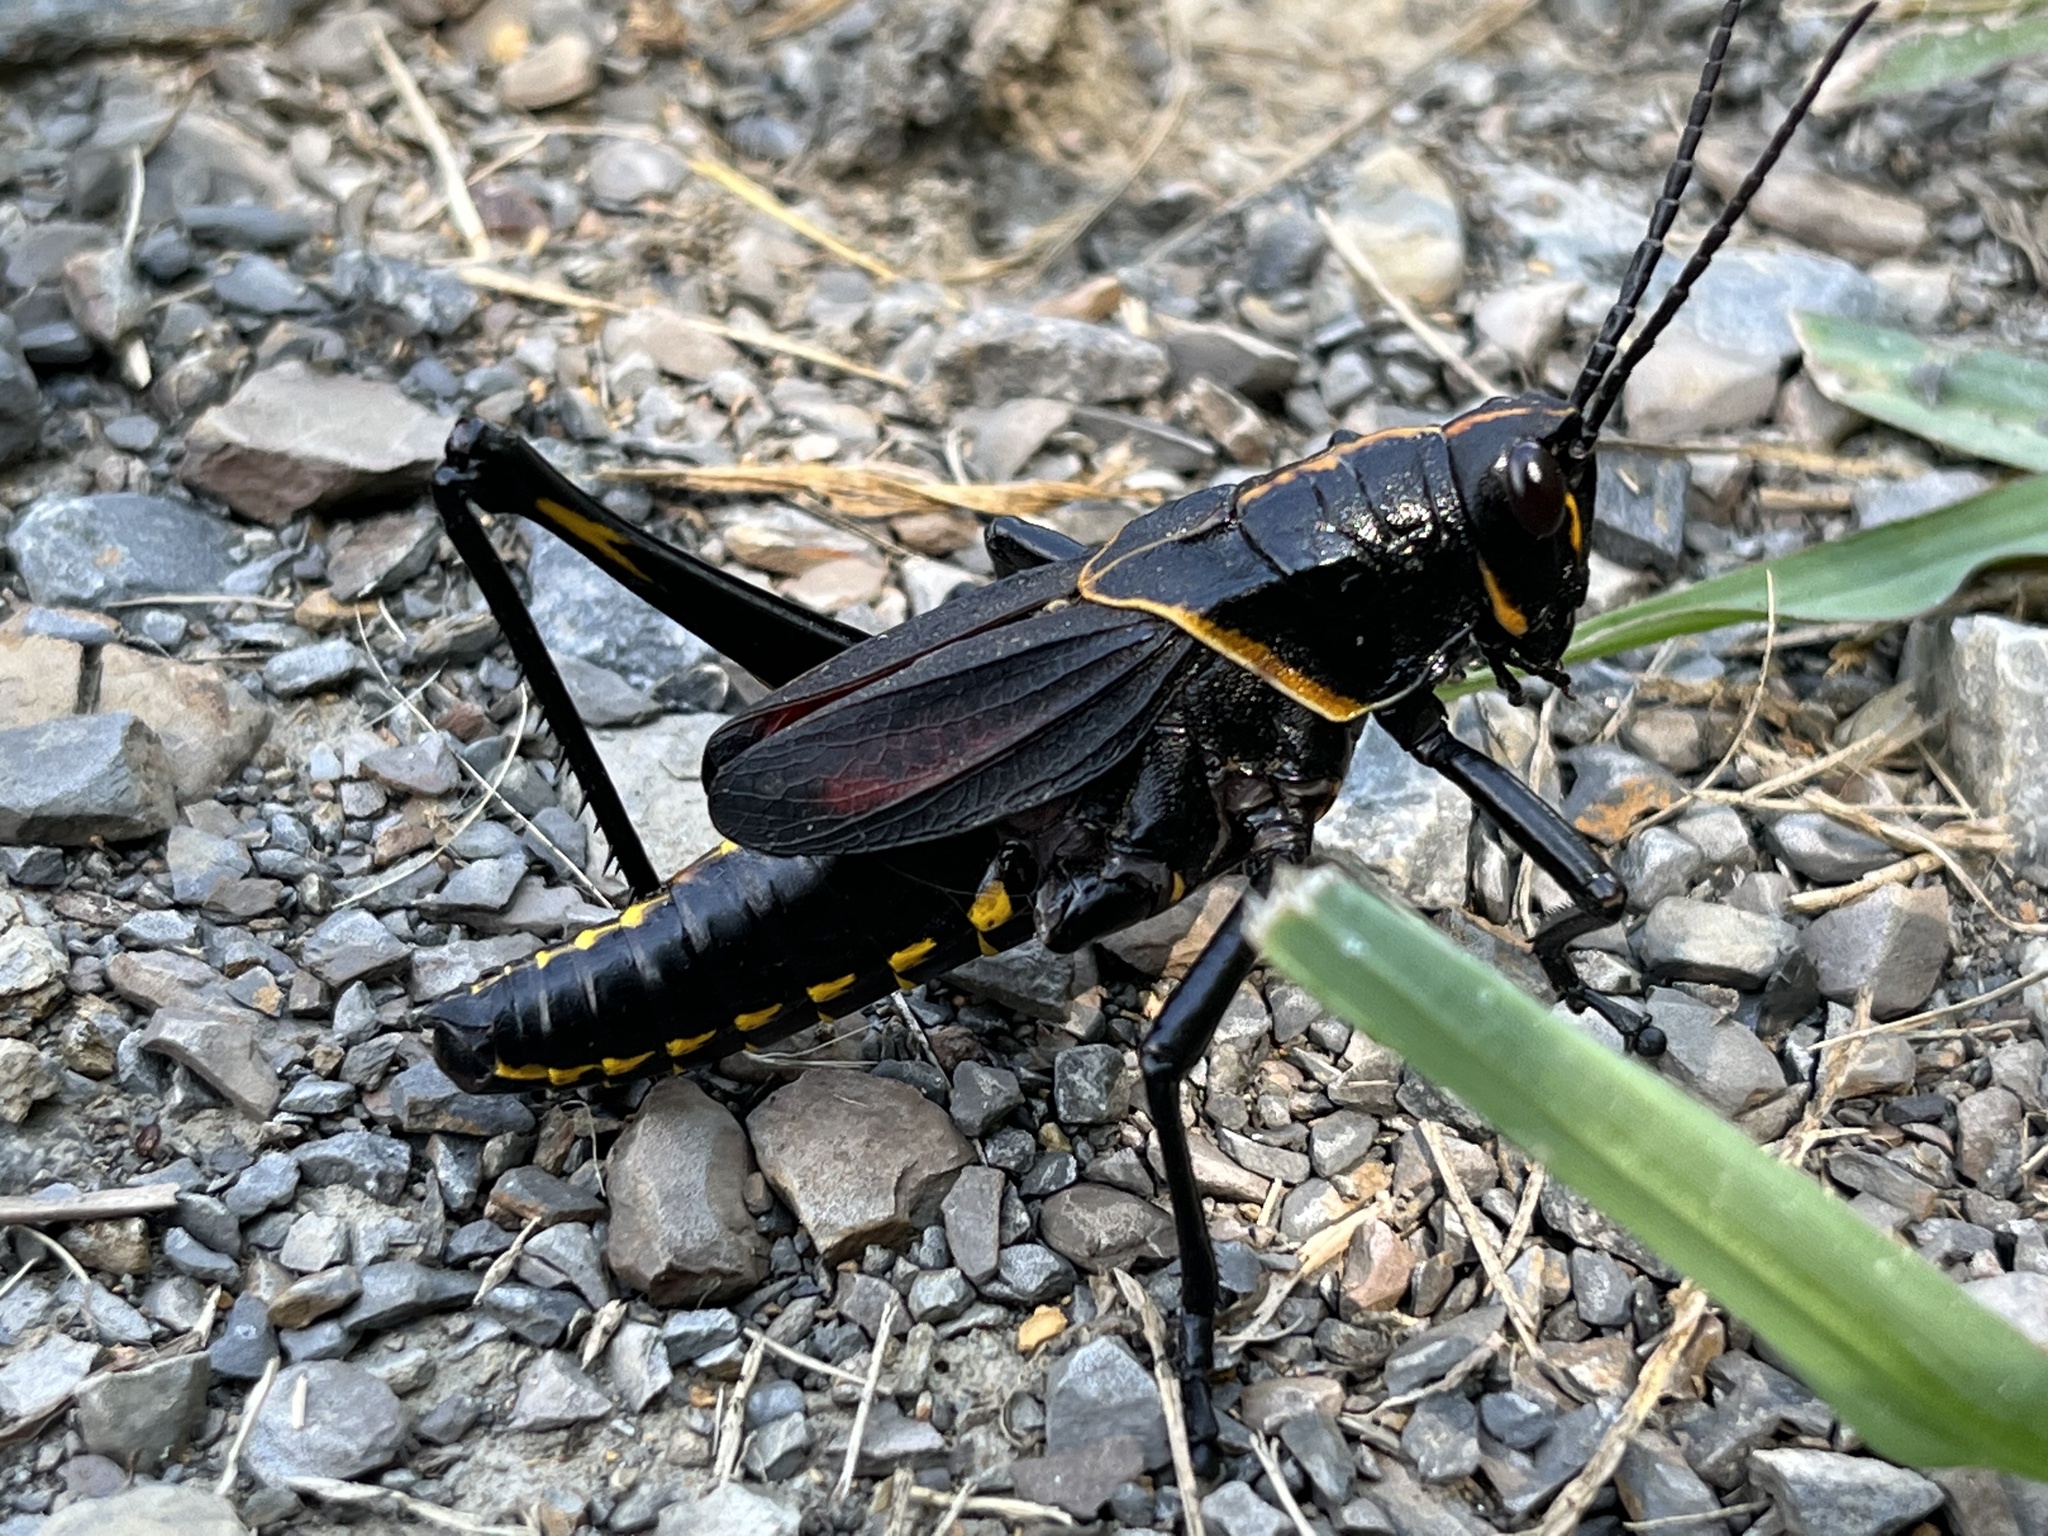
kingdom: Animalia
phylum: Arthropoda
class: Insecta
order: Orthoptera
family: Romaleidae
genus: Romalea
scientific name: Romalea microptera
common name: Eastern lubber grasshopper
